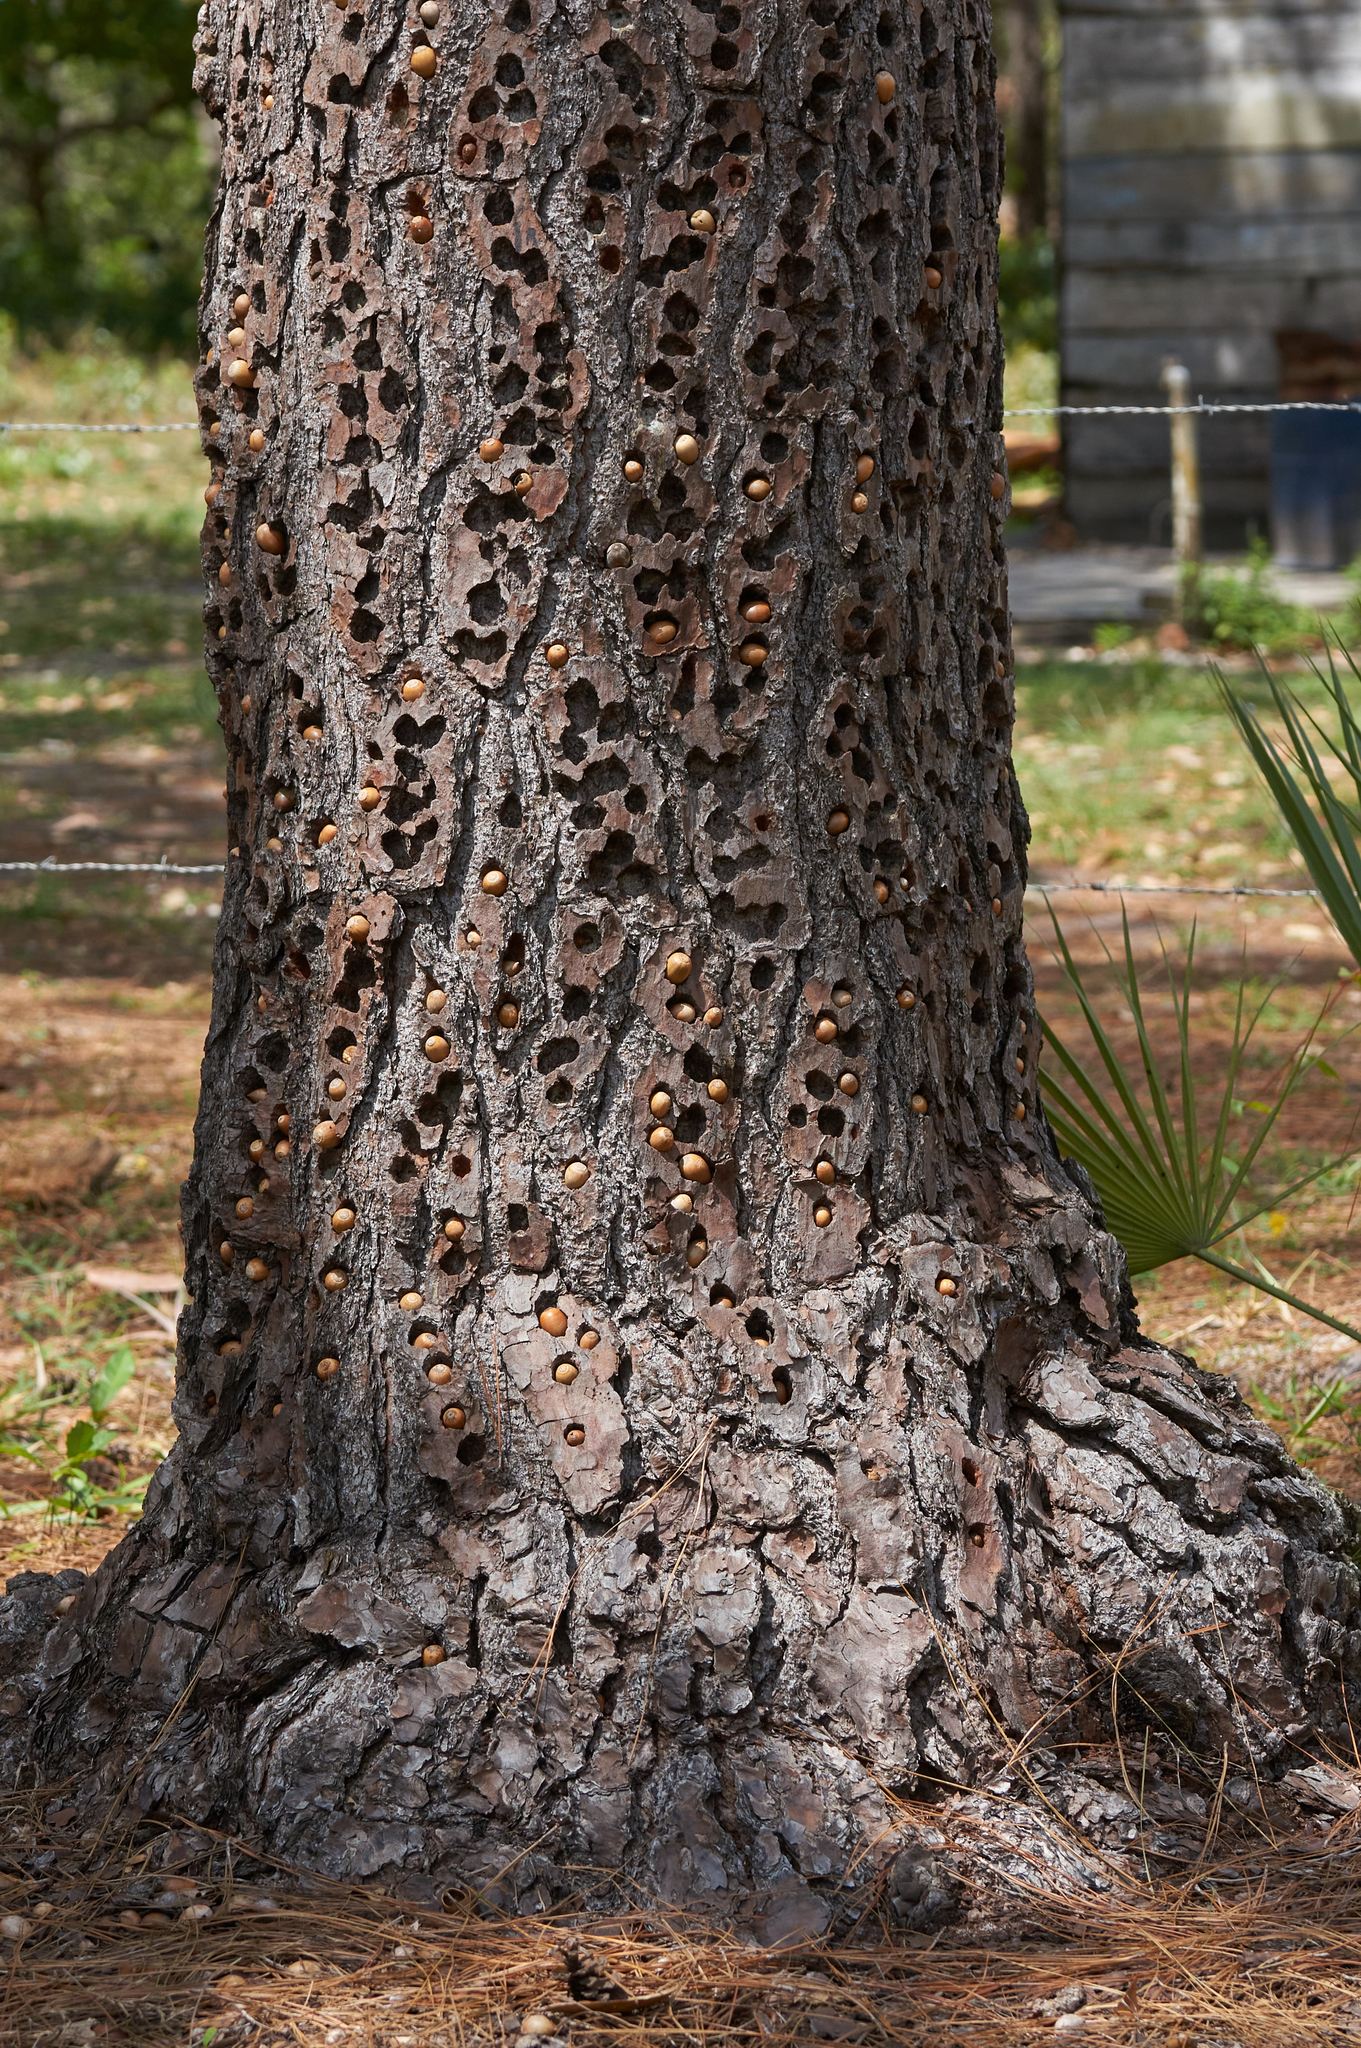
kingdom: Animalia
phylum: Chordata
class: Aves
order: Piciformes
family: Picidae
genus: Melanerpes
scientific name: Melanerpes formicivorus
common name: Acorn woodpecker
